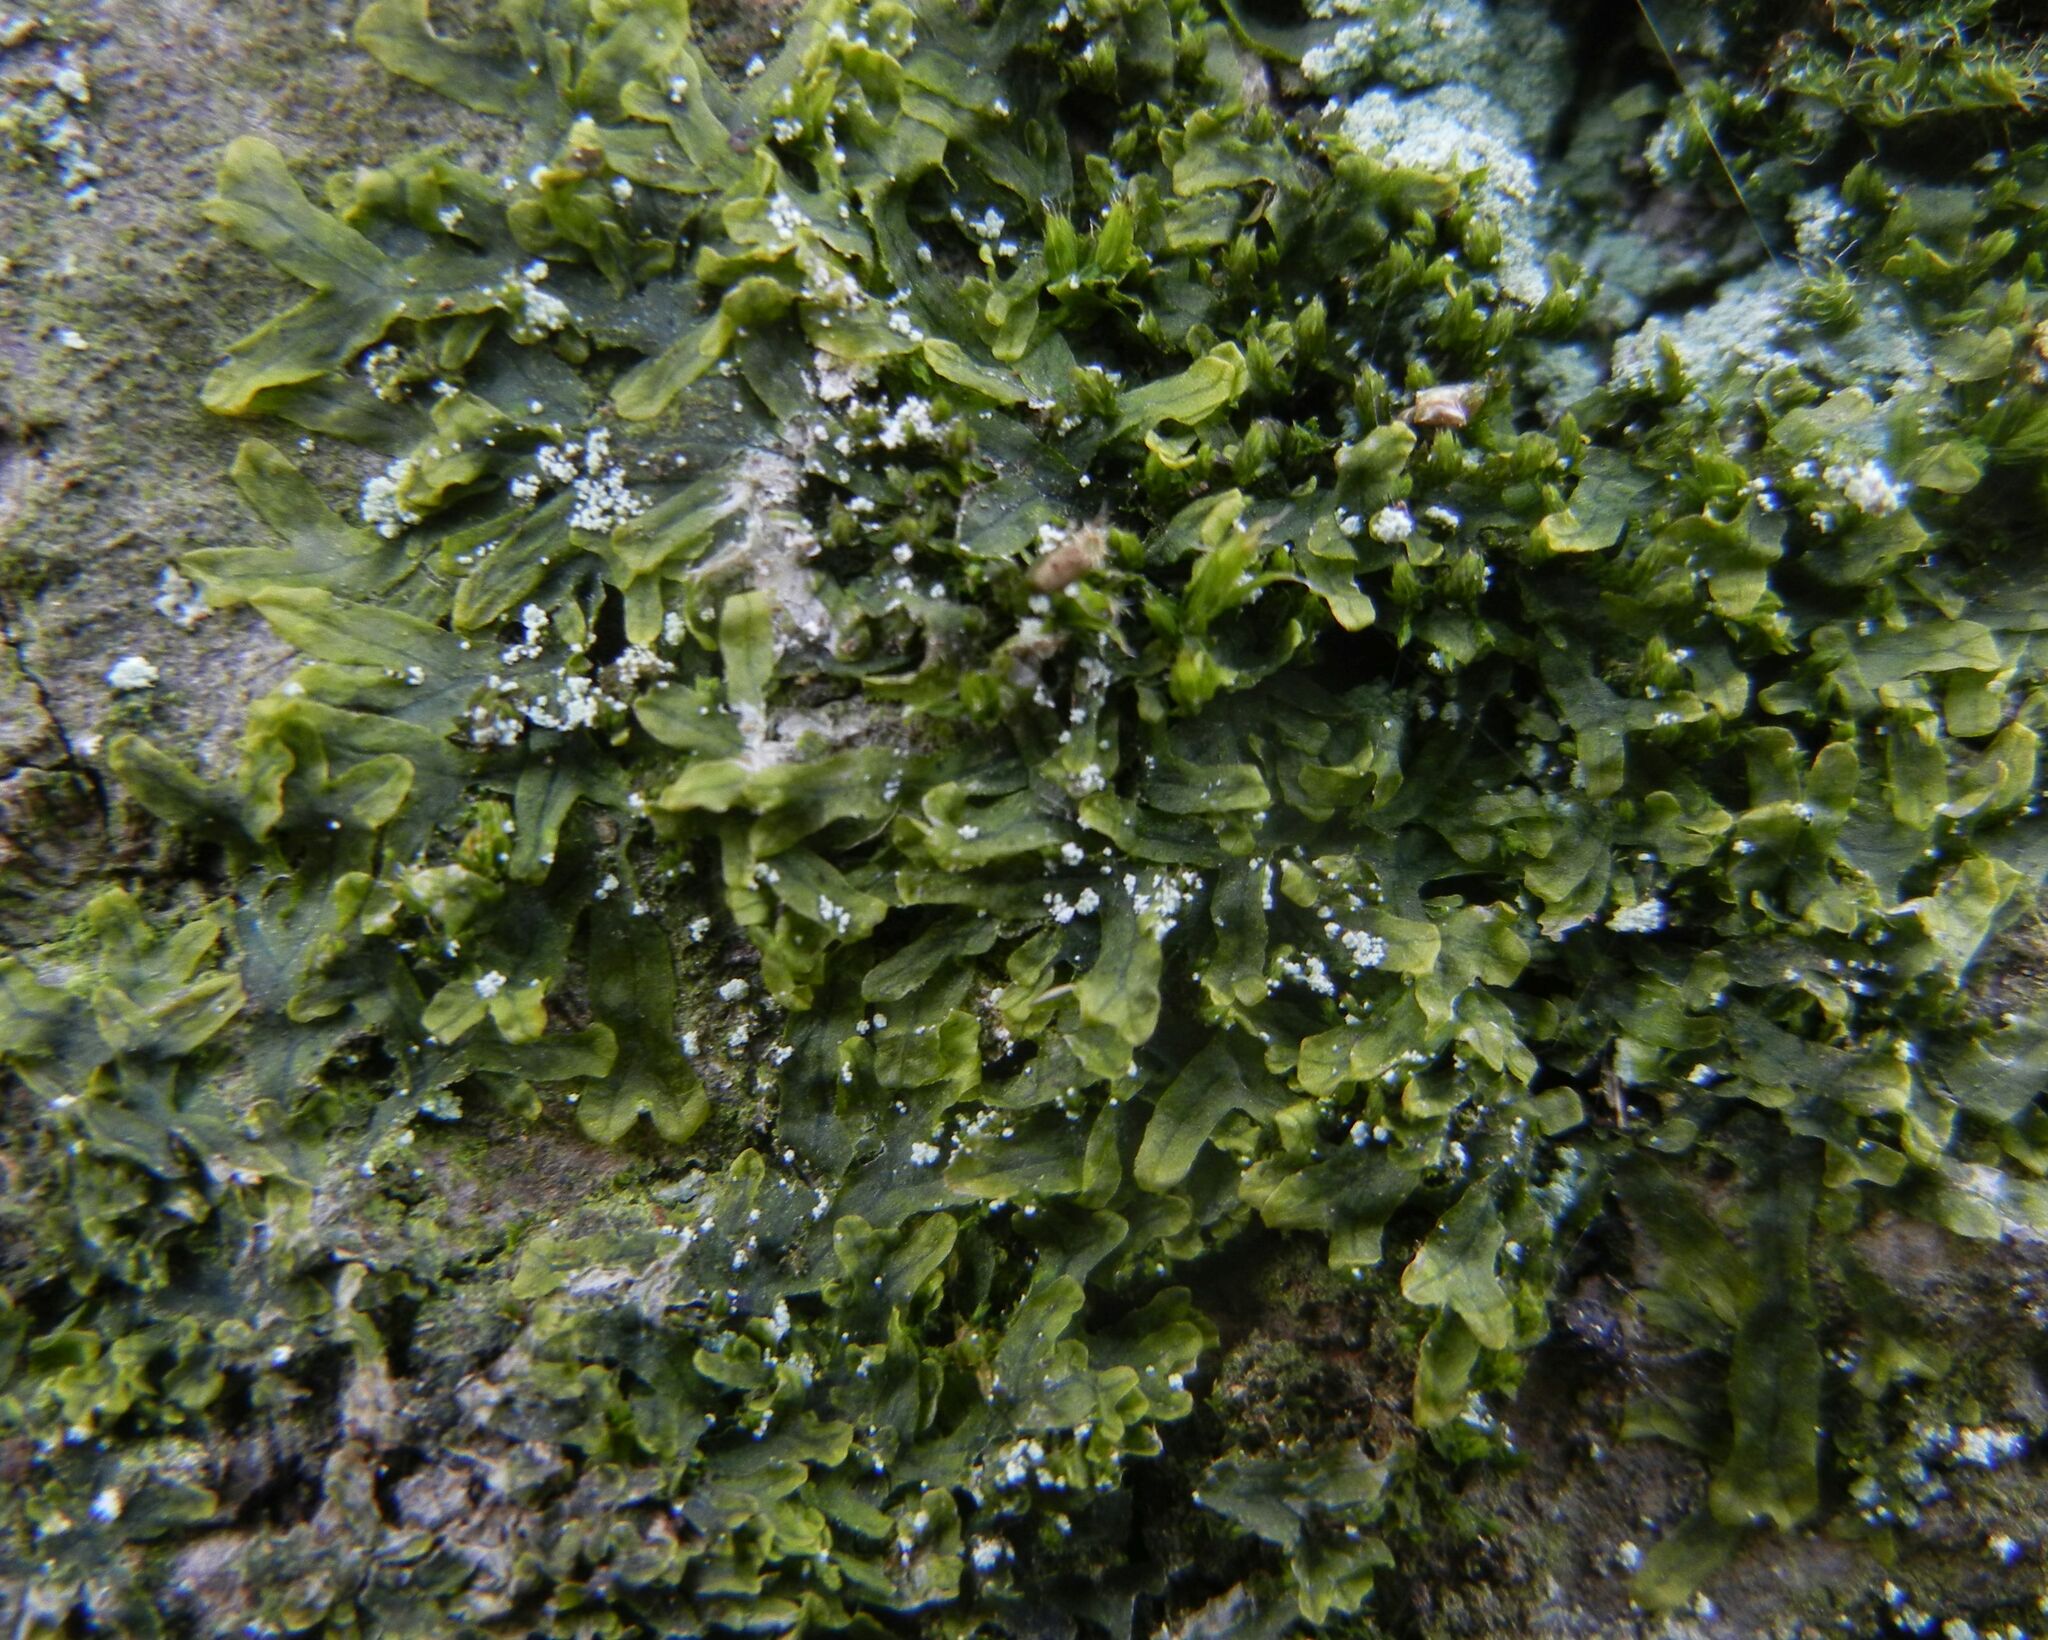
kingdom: Plantae
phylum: Marchantiophyta
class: Jungermanniopsida
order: Metzgeriales
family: Metzgeriaceae
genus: Metzgeria
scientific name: Metzgeria furcata
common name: Forked veilwort
